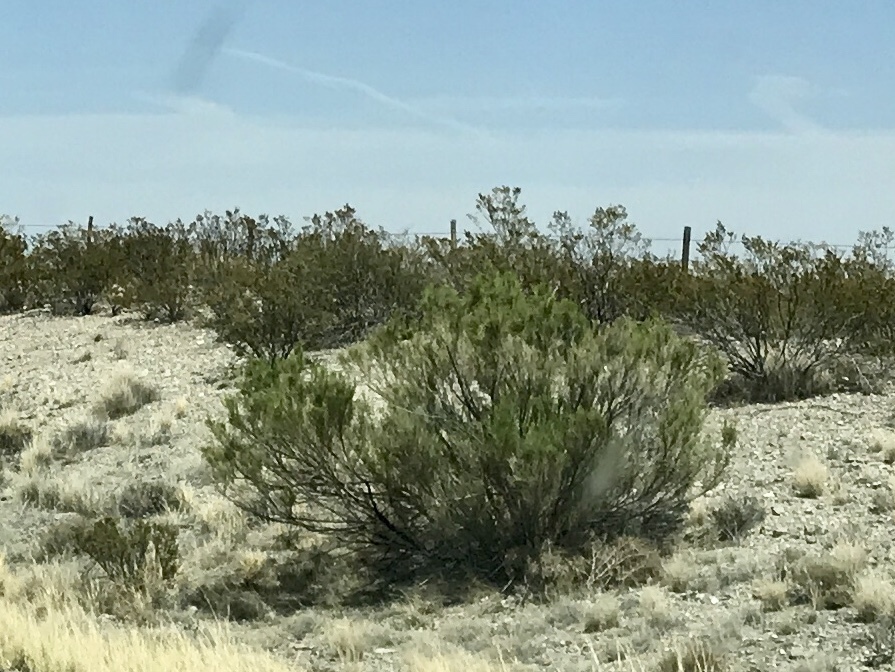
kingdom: Plantae
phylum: Tracheophyta
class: Magnoliopsida
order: Asterales
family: Asteraceae
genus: Baccharis
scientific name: Baccharis sarothroides
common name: Desert-broom
